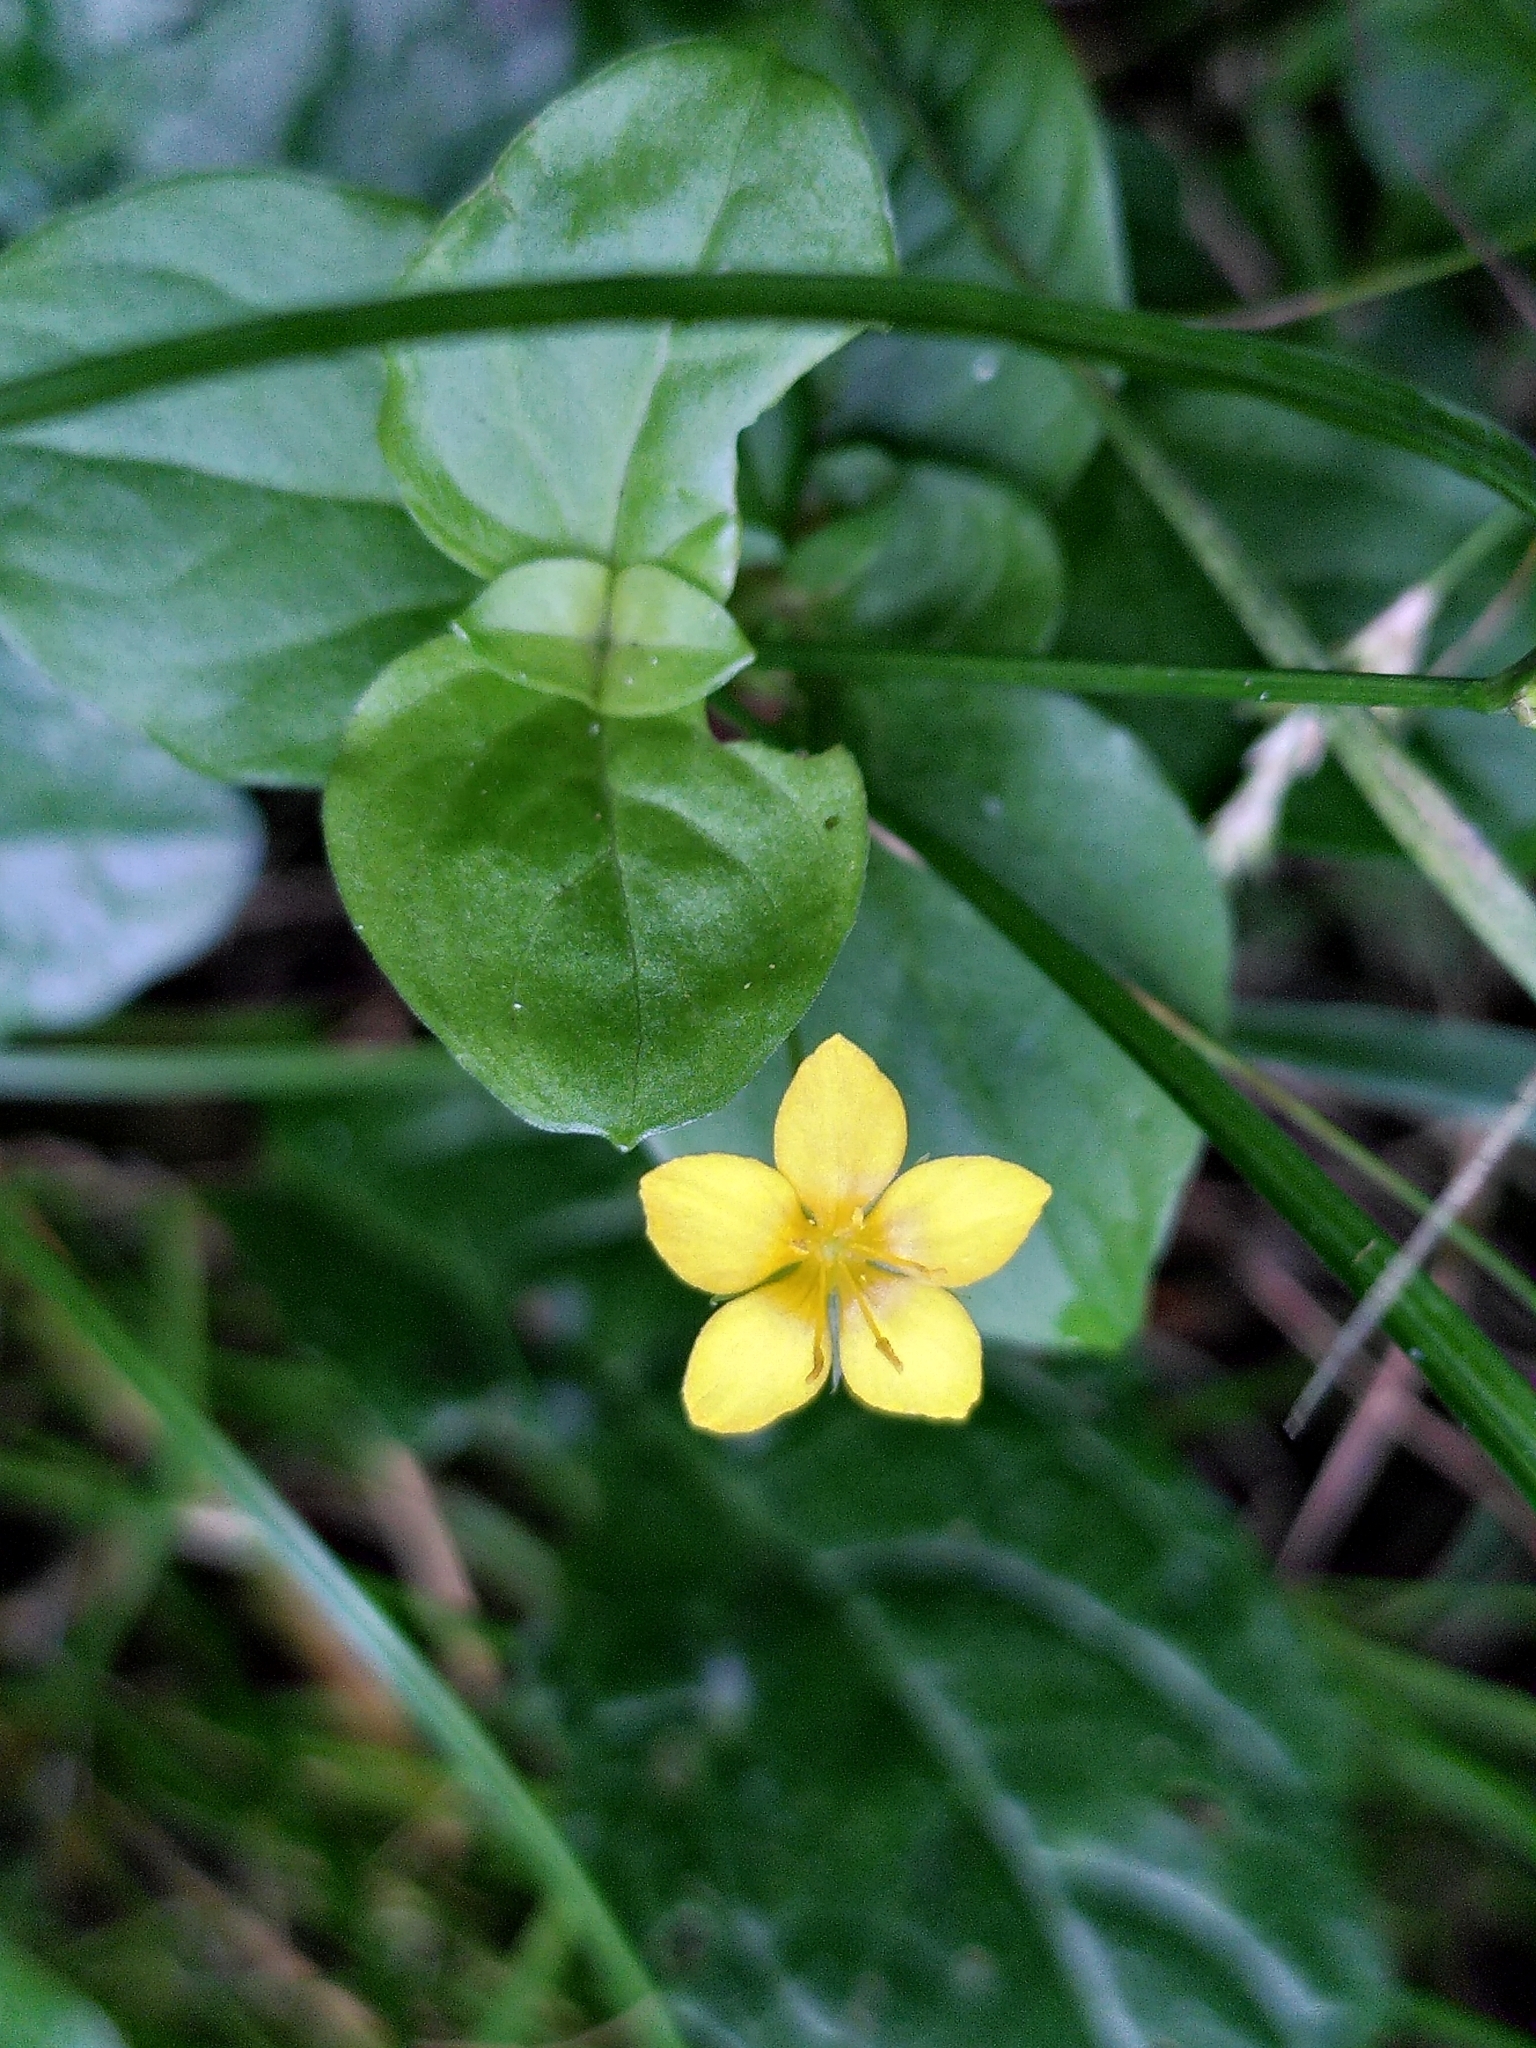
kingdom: Plantae
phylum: Tracheophyta
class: Magnoliopsida
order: Ericales
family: Primulaceae
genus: Lysimachia
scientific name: Lysimachia nemorum
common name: Yellow pimpernel
